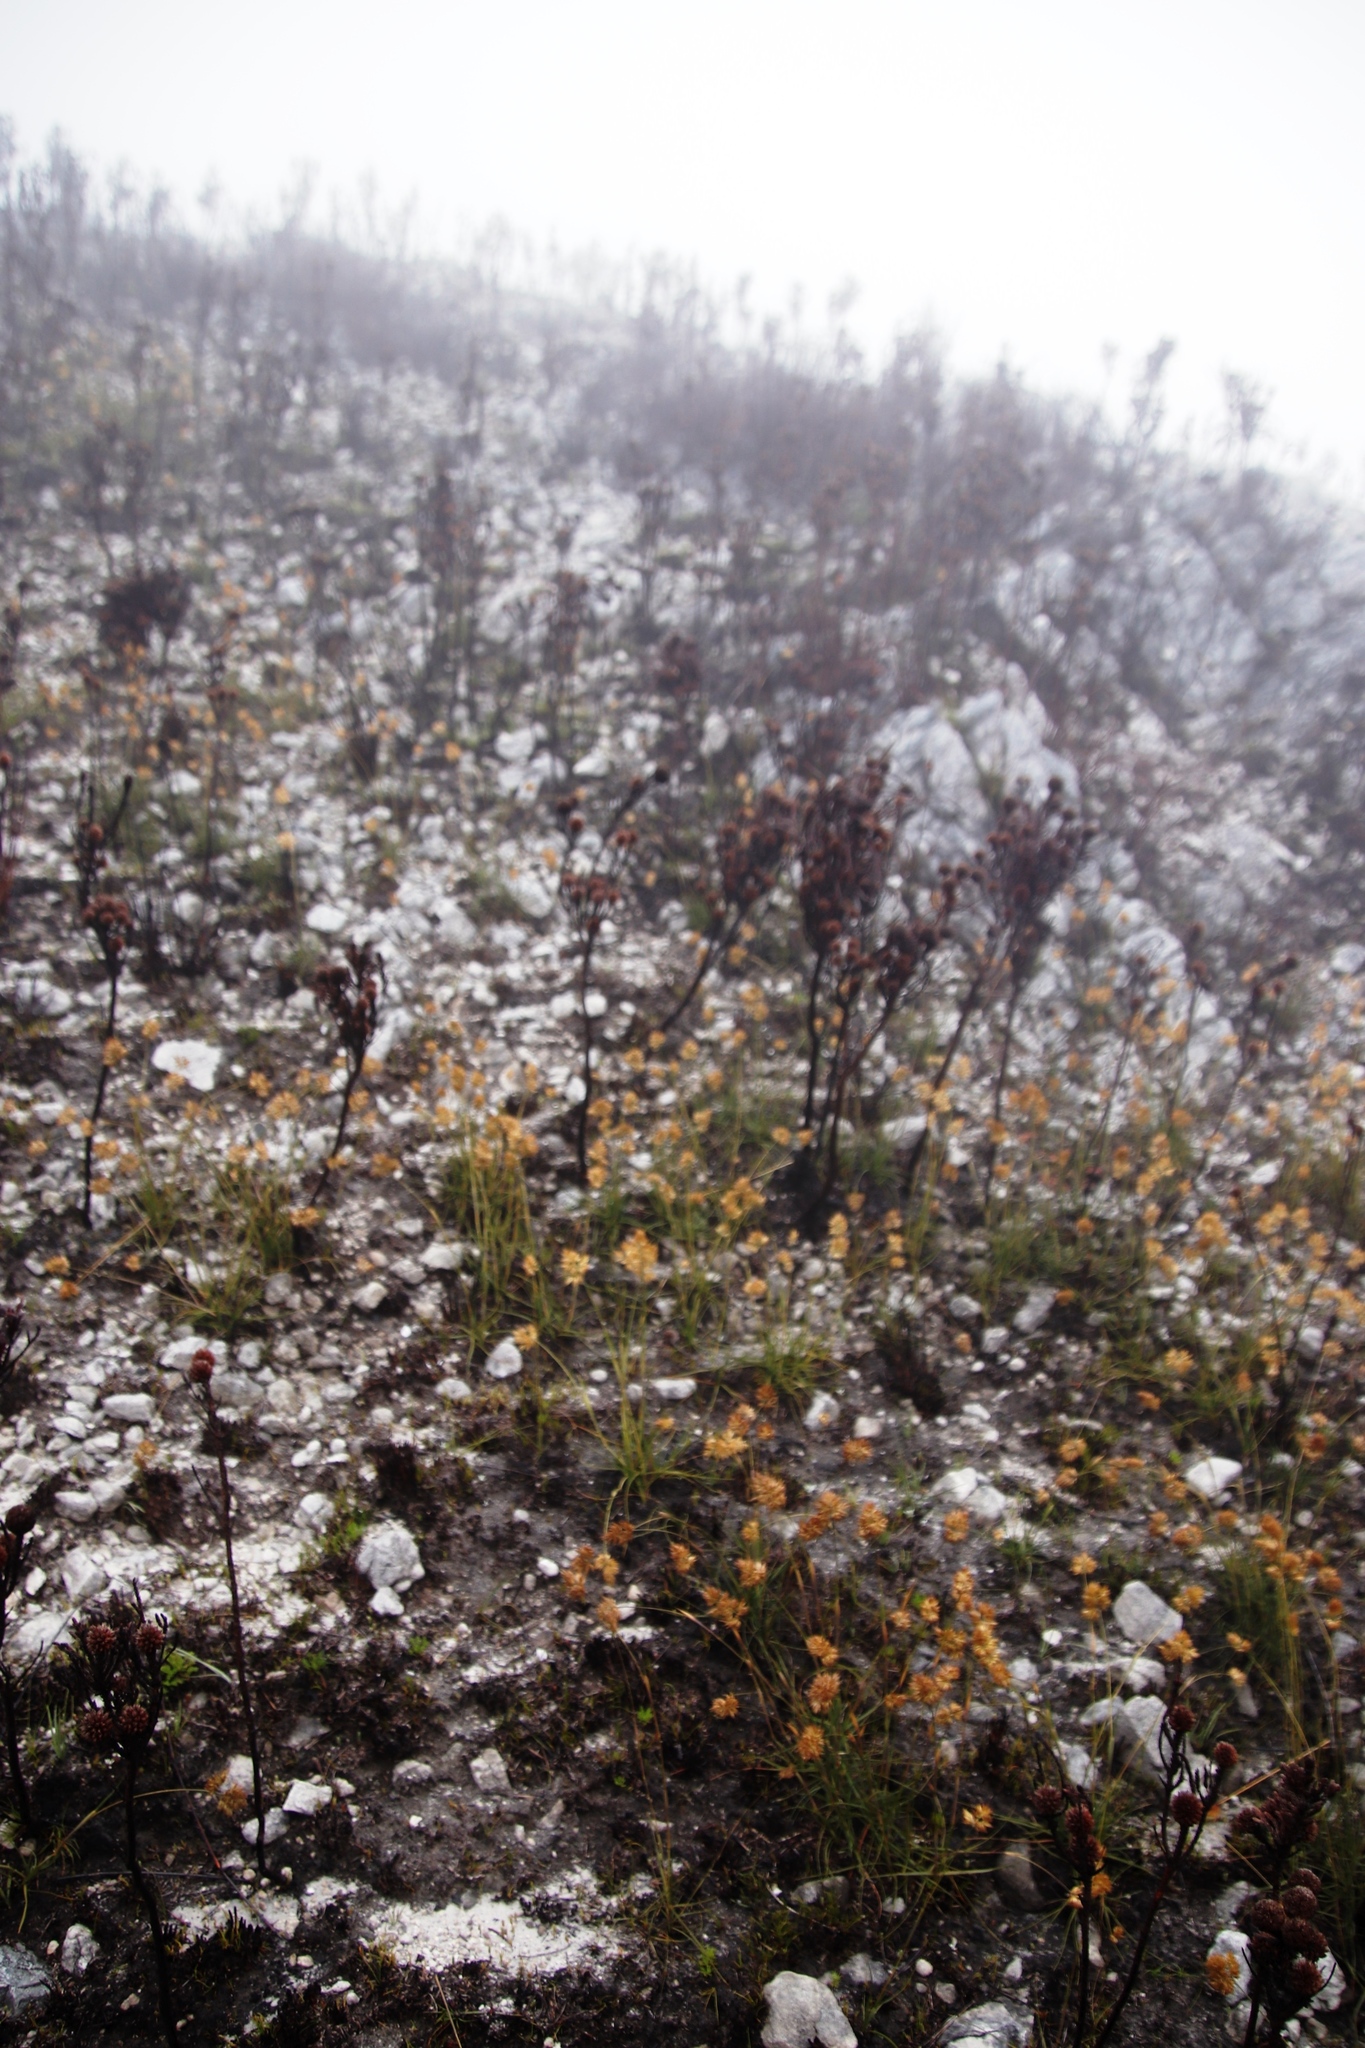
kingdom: Plantae
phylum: Tracheophyta
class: Liliopsida
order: Poales
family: Poaceae
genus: Geochloa
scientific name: Geochloa rufa
